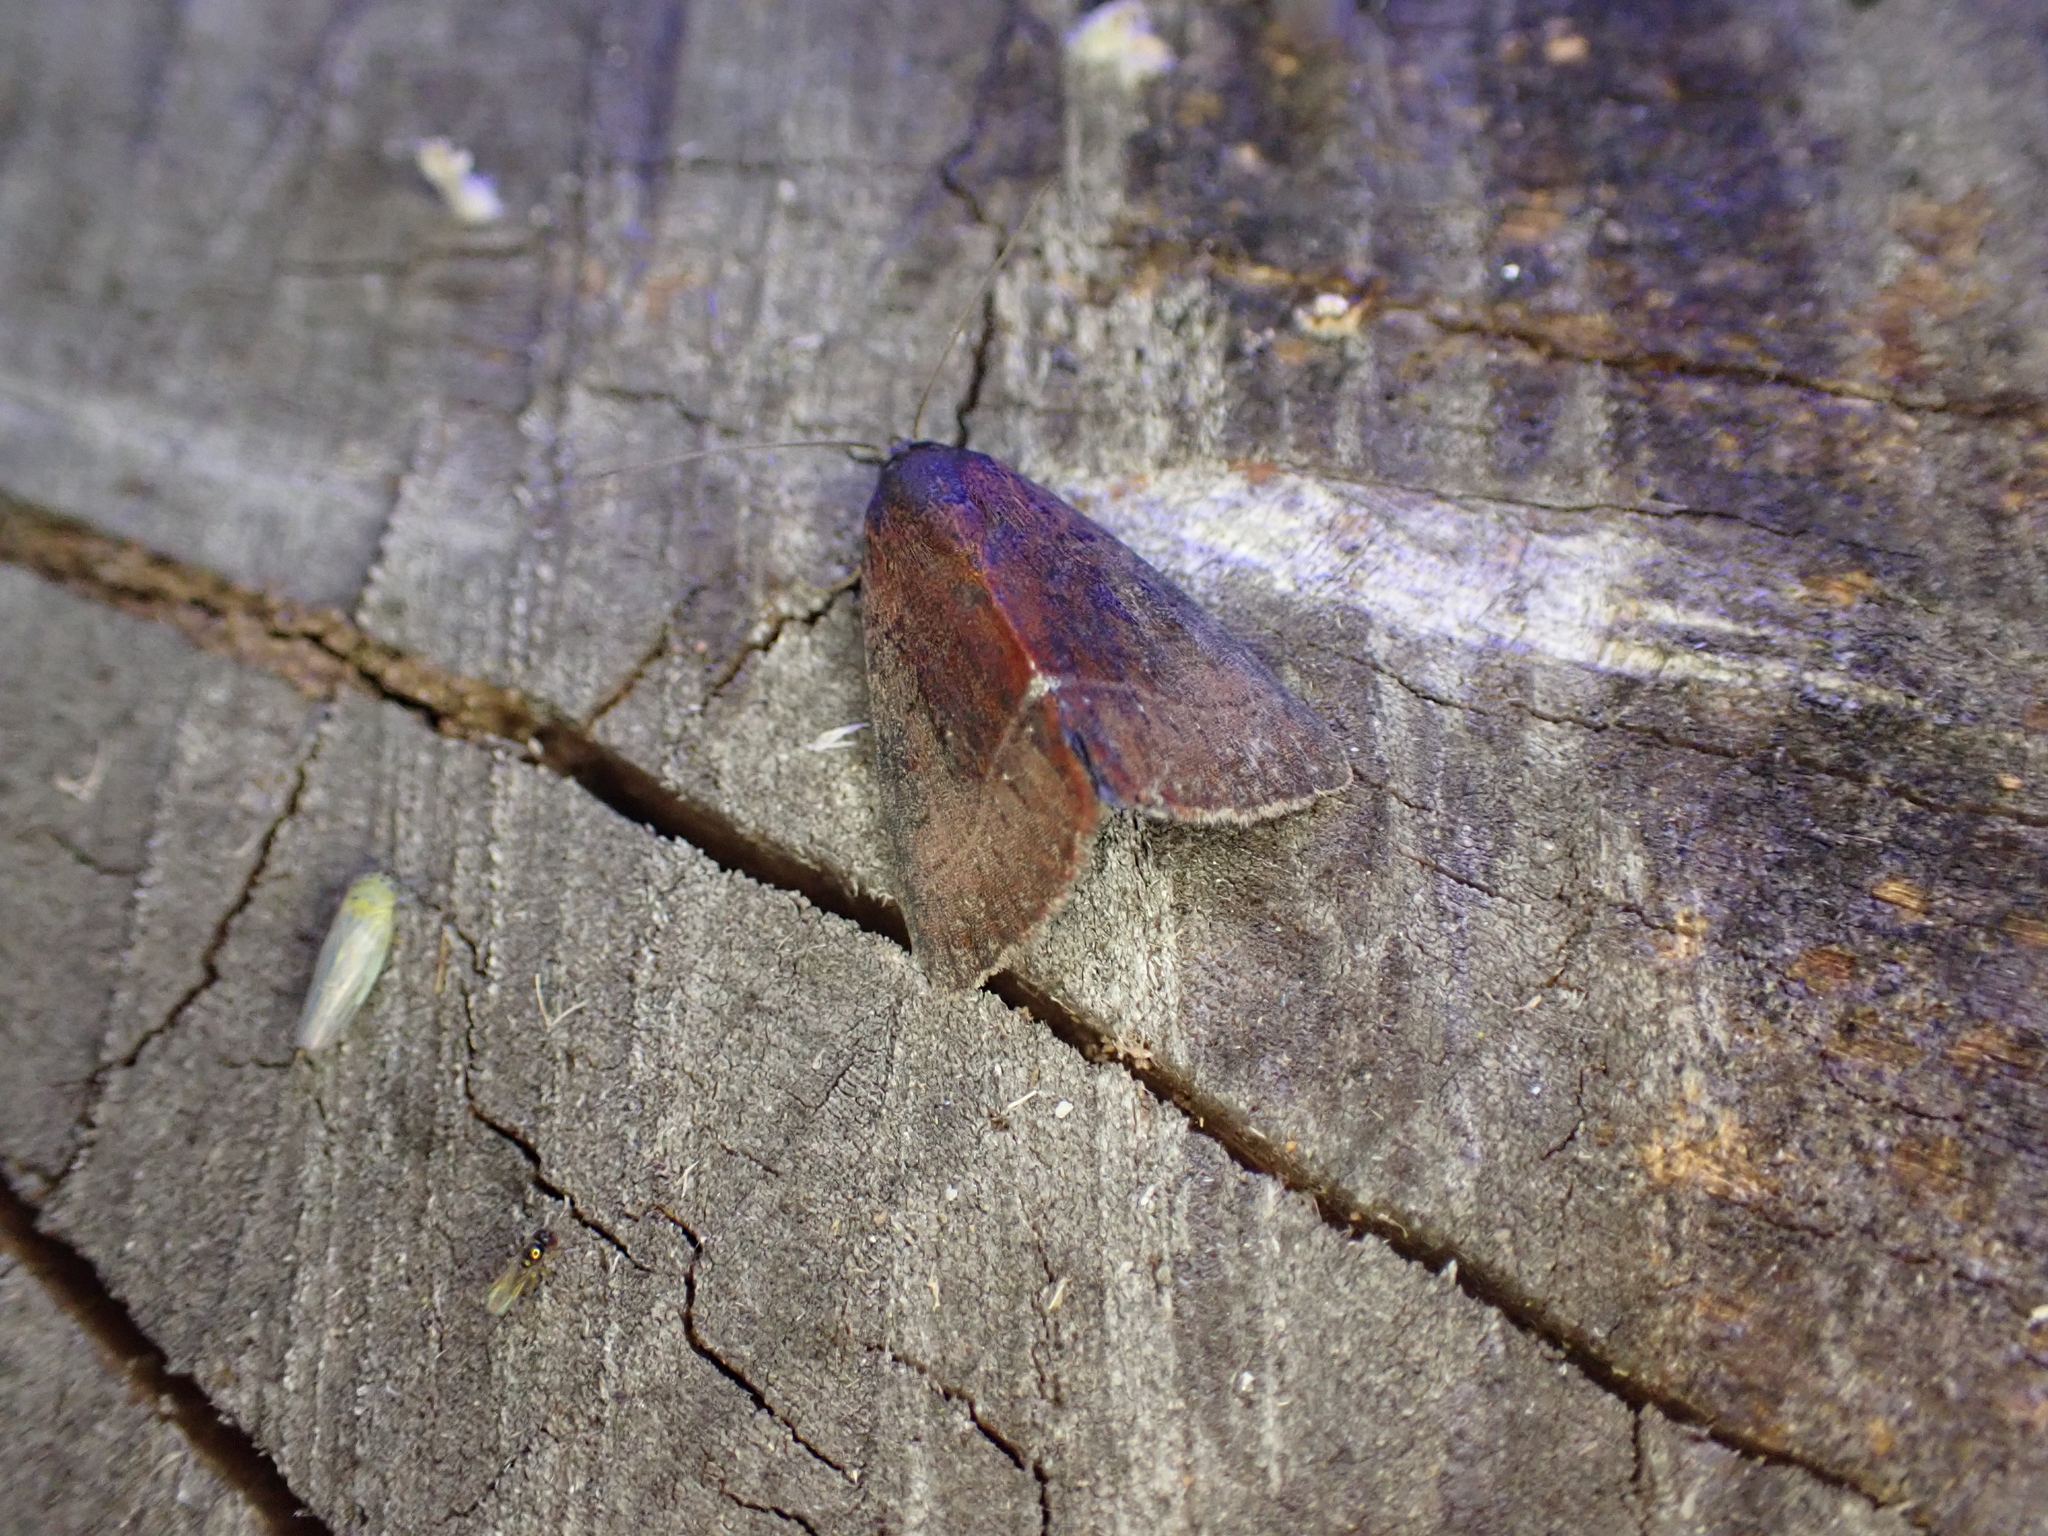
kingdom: Animalia
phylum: Arthropoda
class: Insecta
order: Lepidoptera
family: Noctuidae
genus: Galgula
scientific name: Galgula partita
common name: Wedgeling
